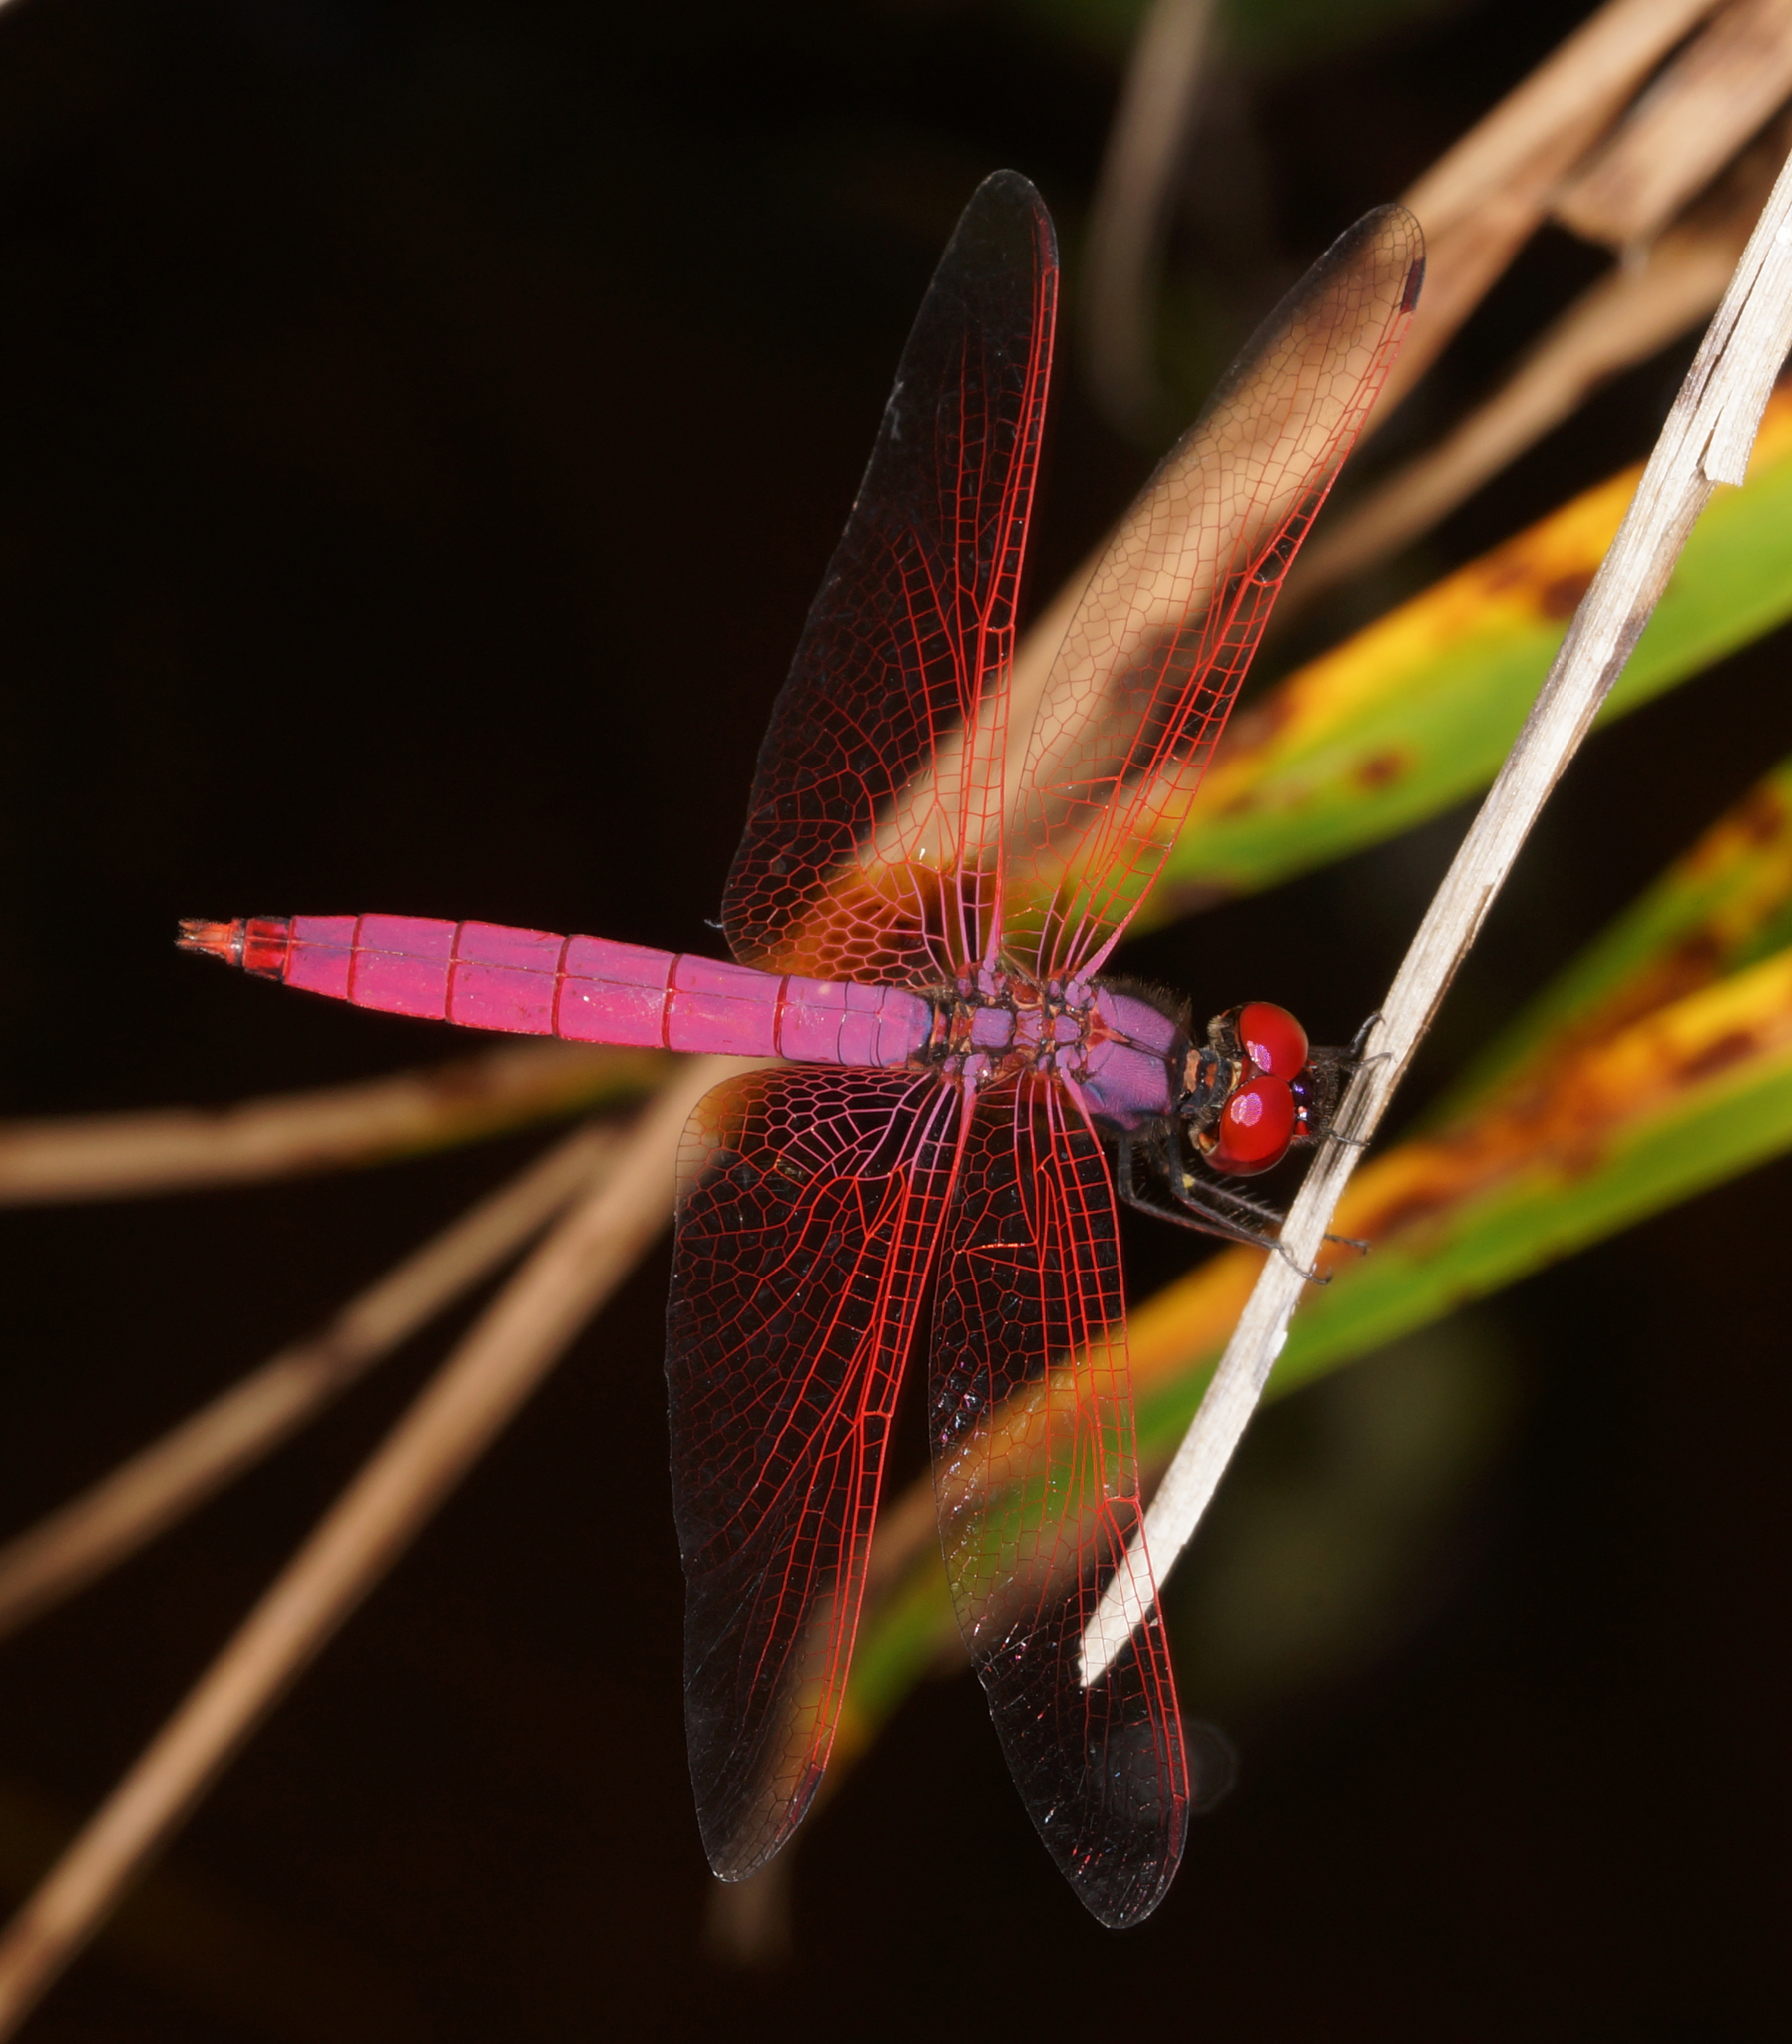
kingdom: Animalia
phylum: Arthropoda
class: Insecta
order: Odonata
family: Libellulidae
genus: Trithemis
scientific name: Trithemis aurora
